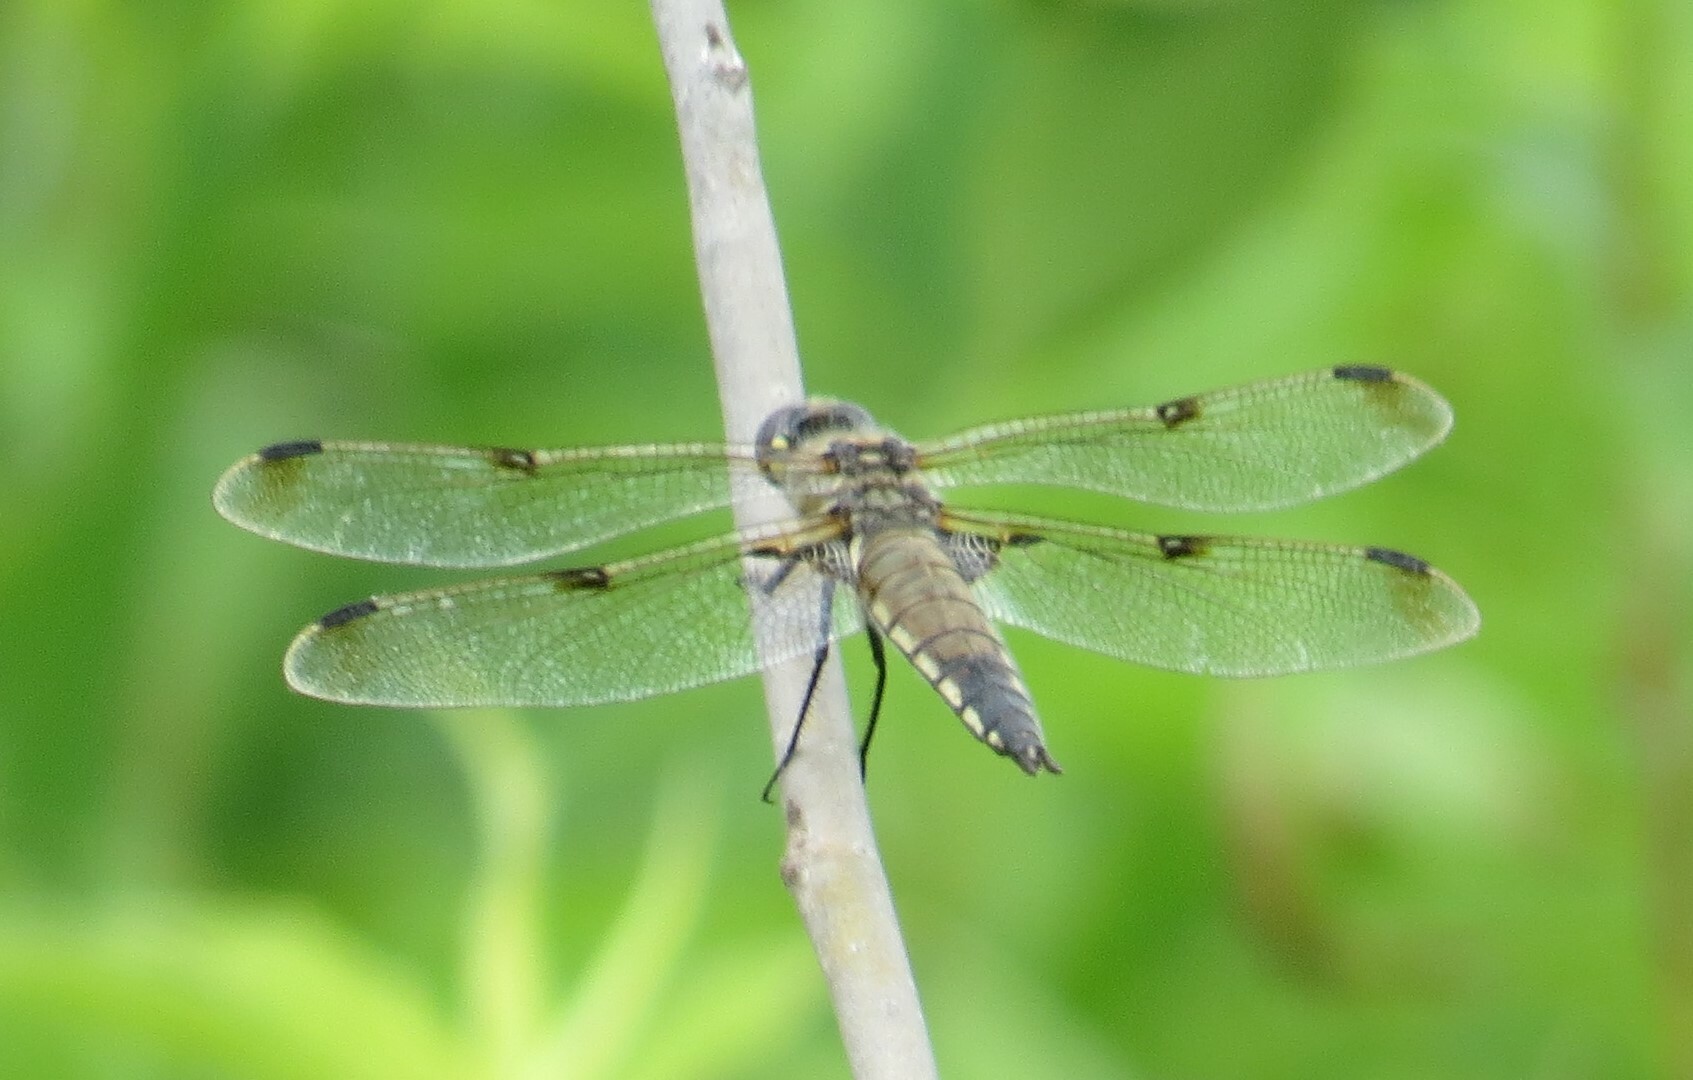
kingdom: Animalia
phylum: Arthropoda
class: Insecta
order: Odonata
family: Libellulidae
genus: Libellula
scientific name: Libellula quadrimaculata
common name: Four-spotted chaser
